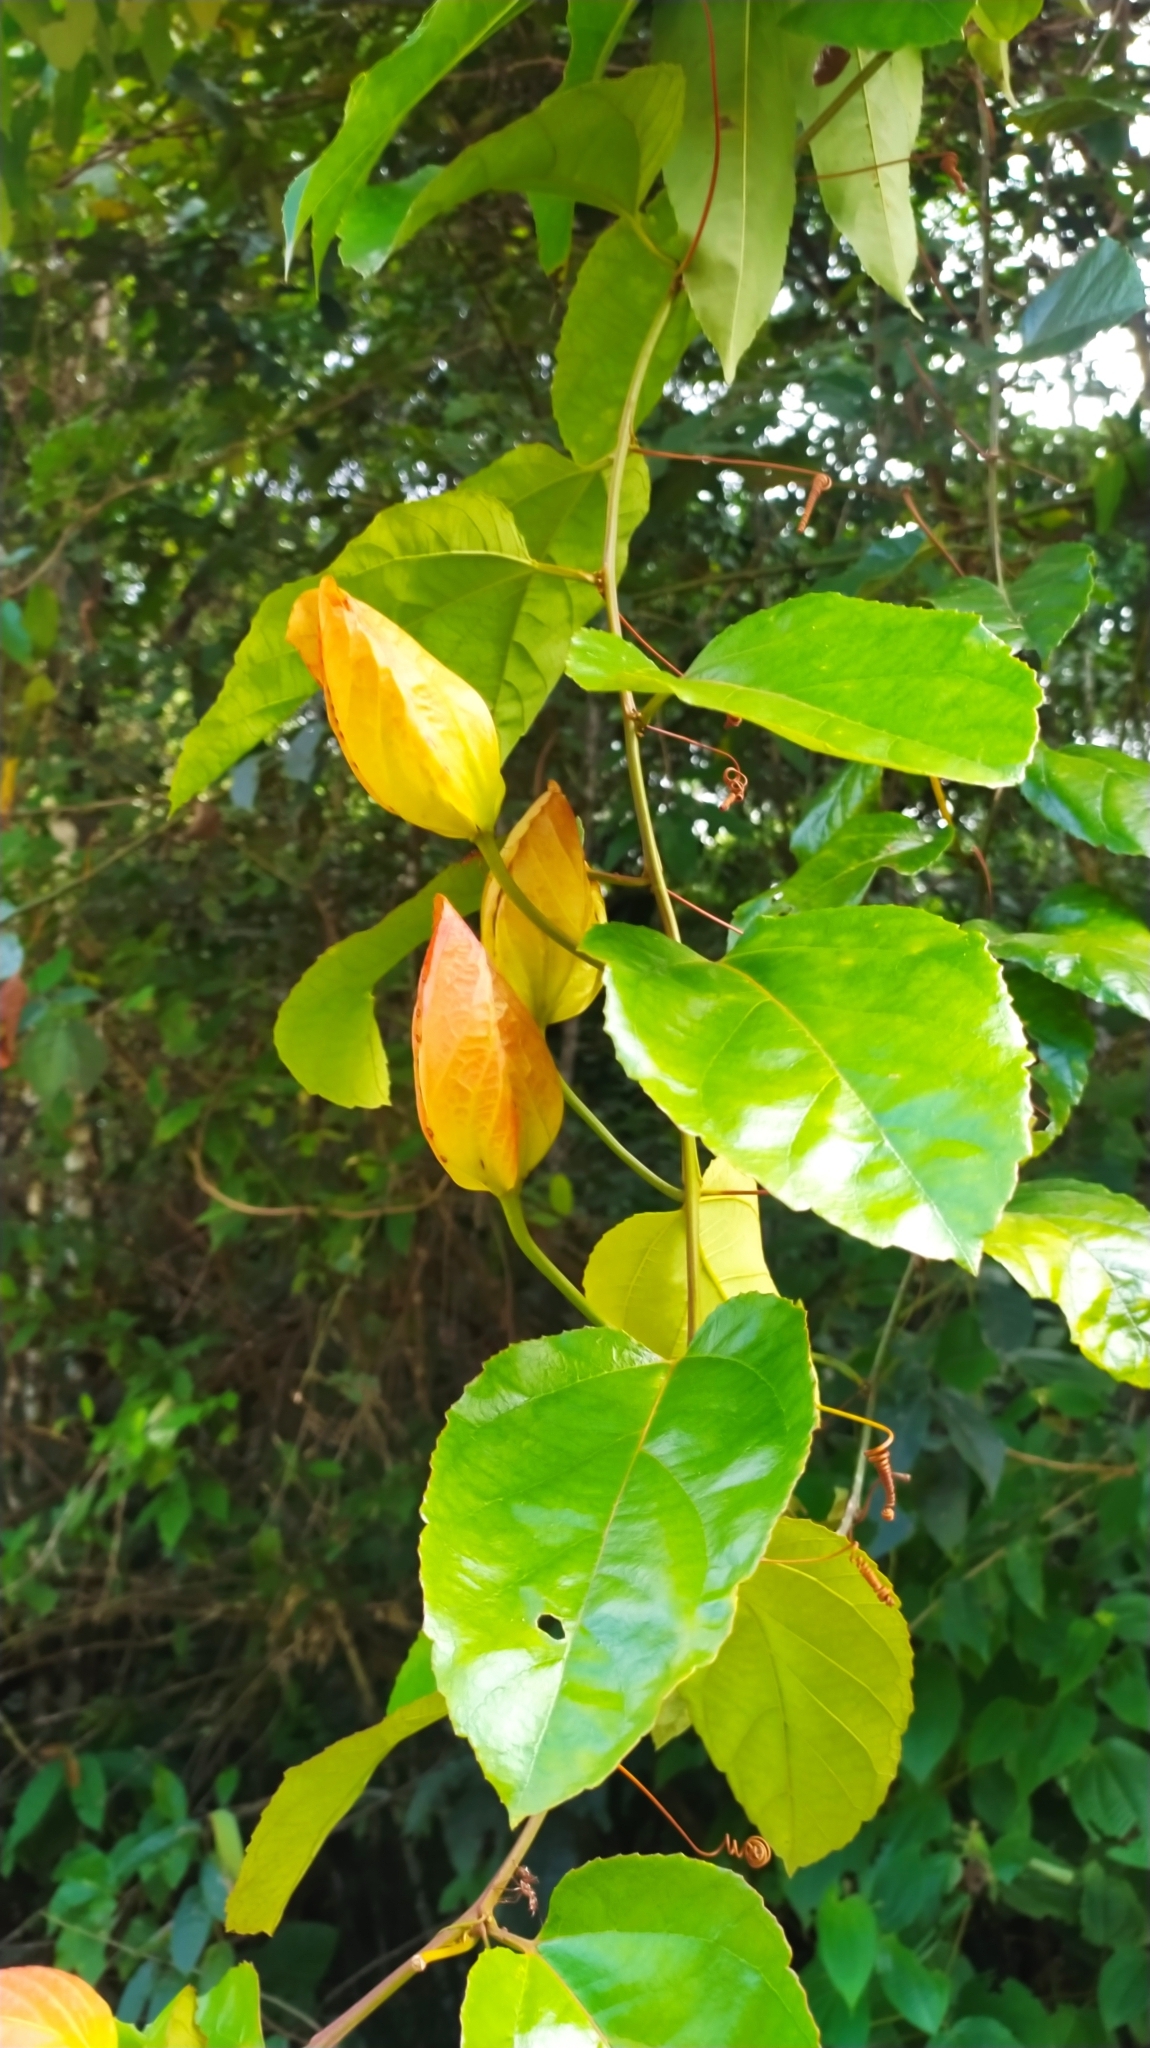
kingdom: Plantae
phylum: Tracheophyta
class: Magnoliopsida
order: Malpighiales
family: Passifloraceae
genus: Passiflora
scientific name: Passiflora coccinea
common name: Scarlet passionflower
